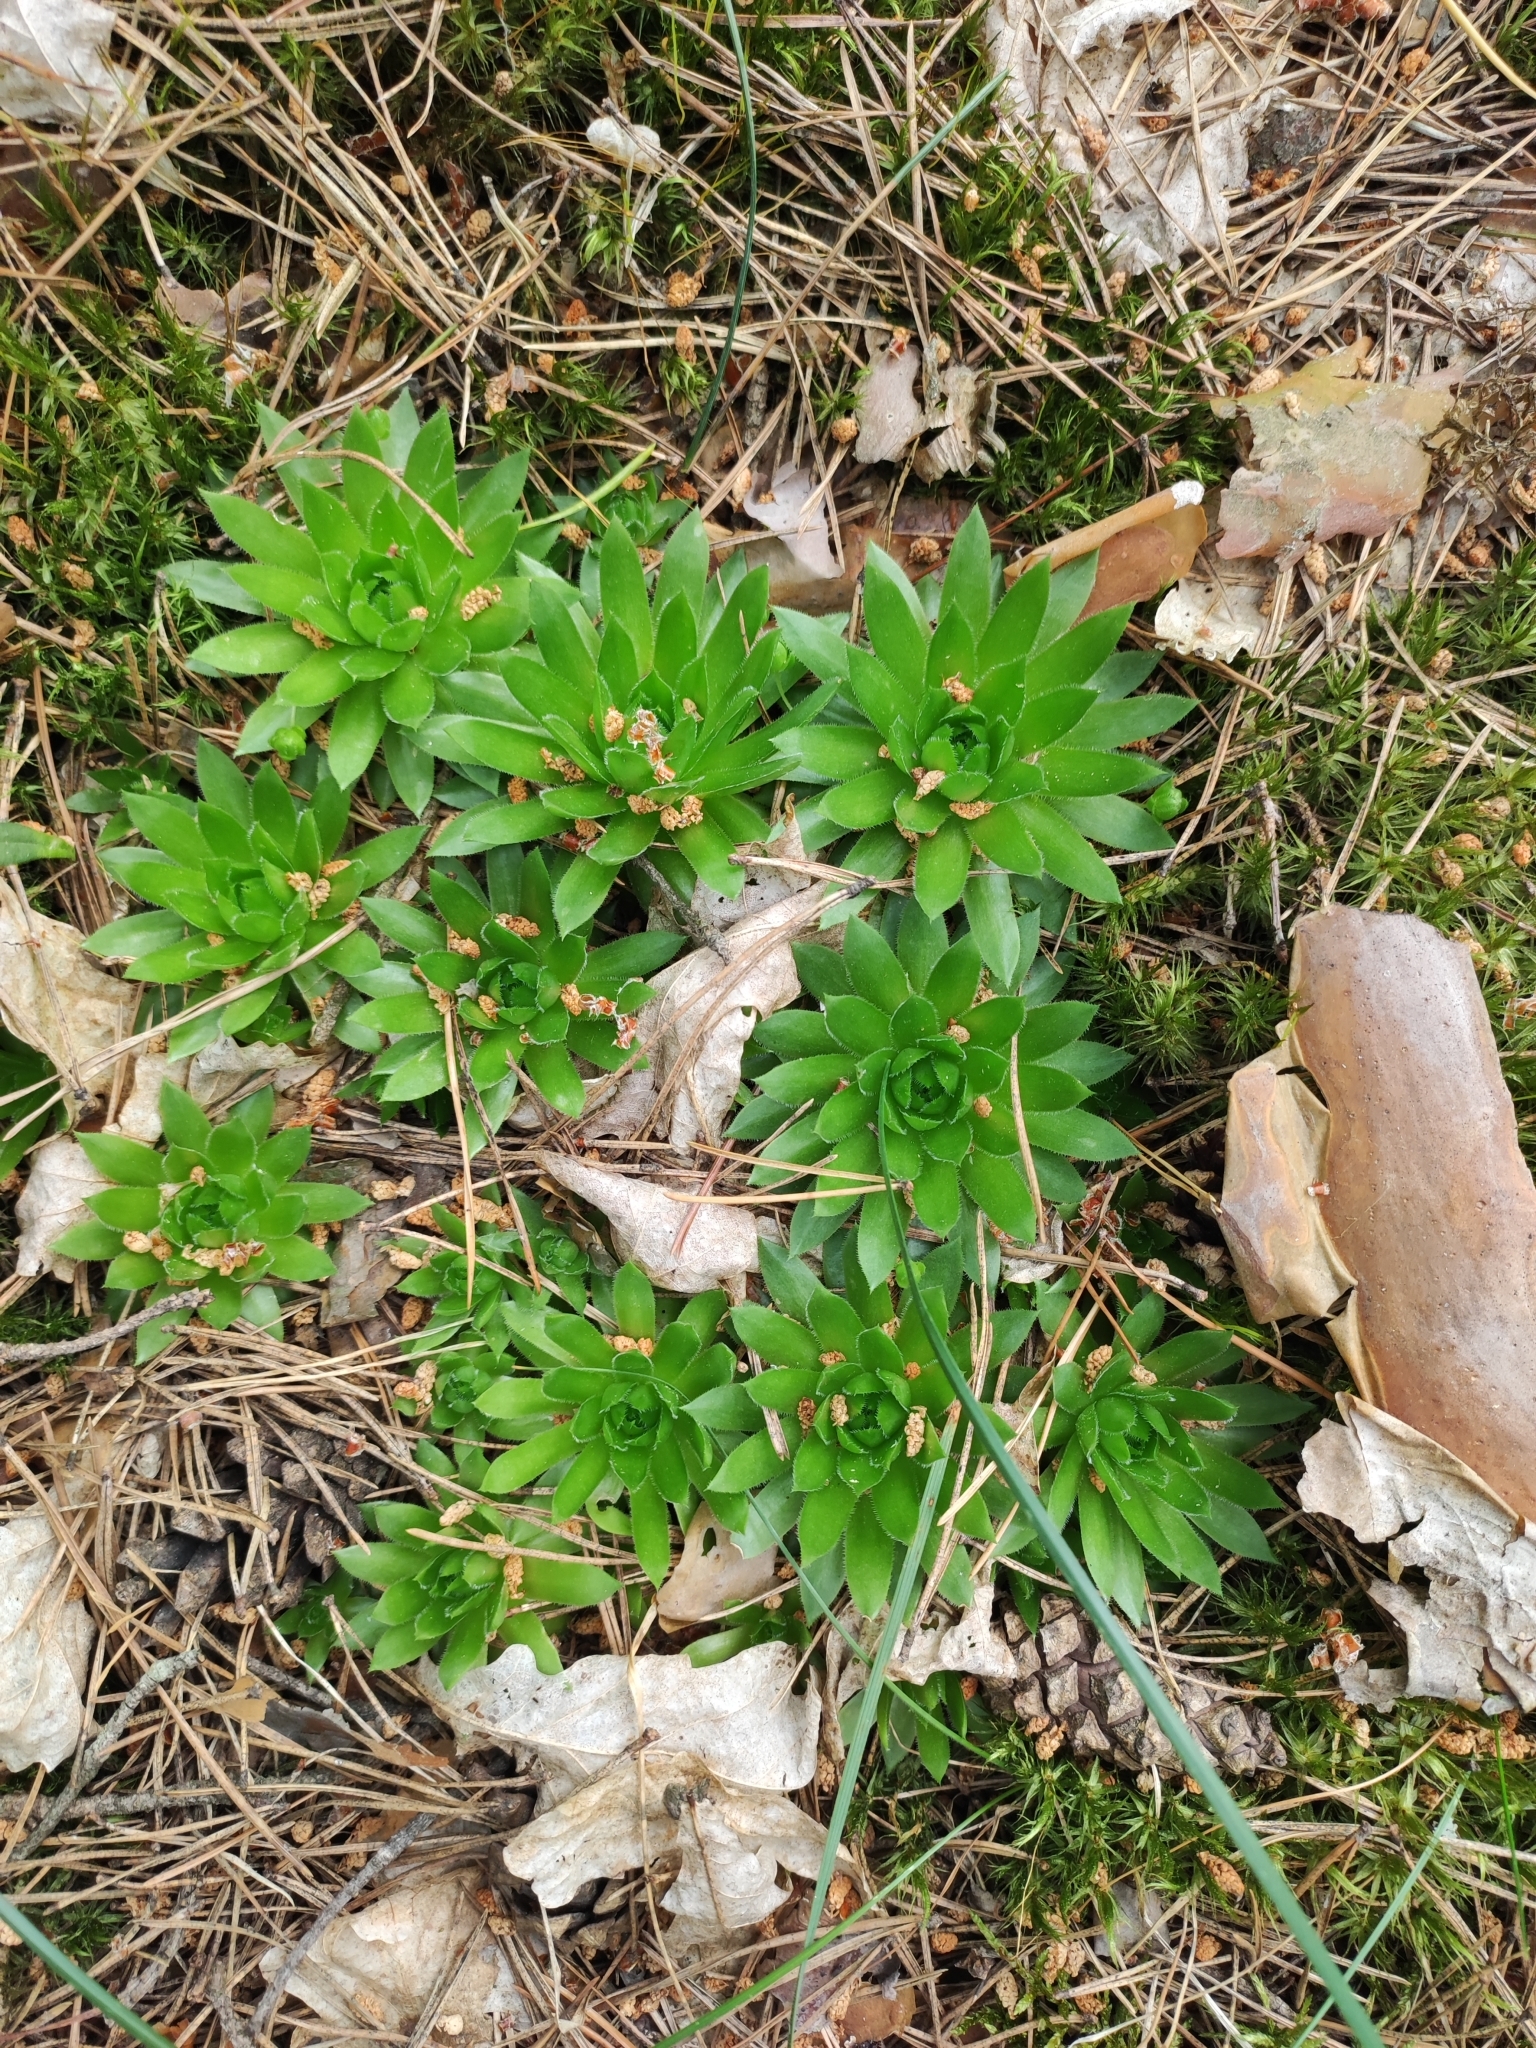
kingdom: Plantae
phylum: Tracheophyta
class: Magnoliopsida
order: Saxifragales
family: Crassulaceae
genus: Sempervivum
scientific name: Sempervivum globiferum
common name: Rolling hen-and-chicks
